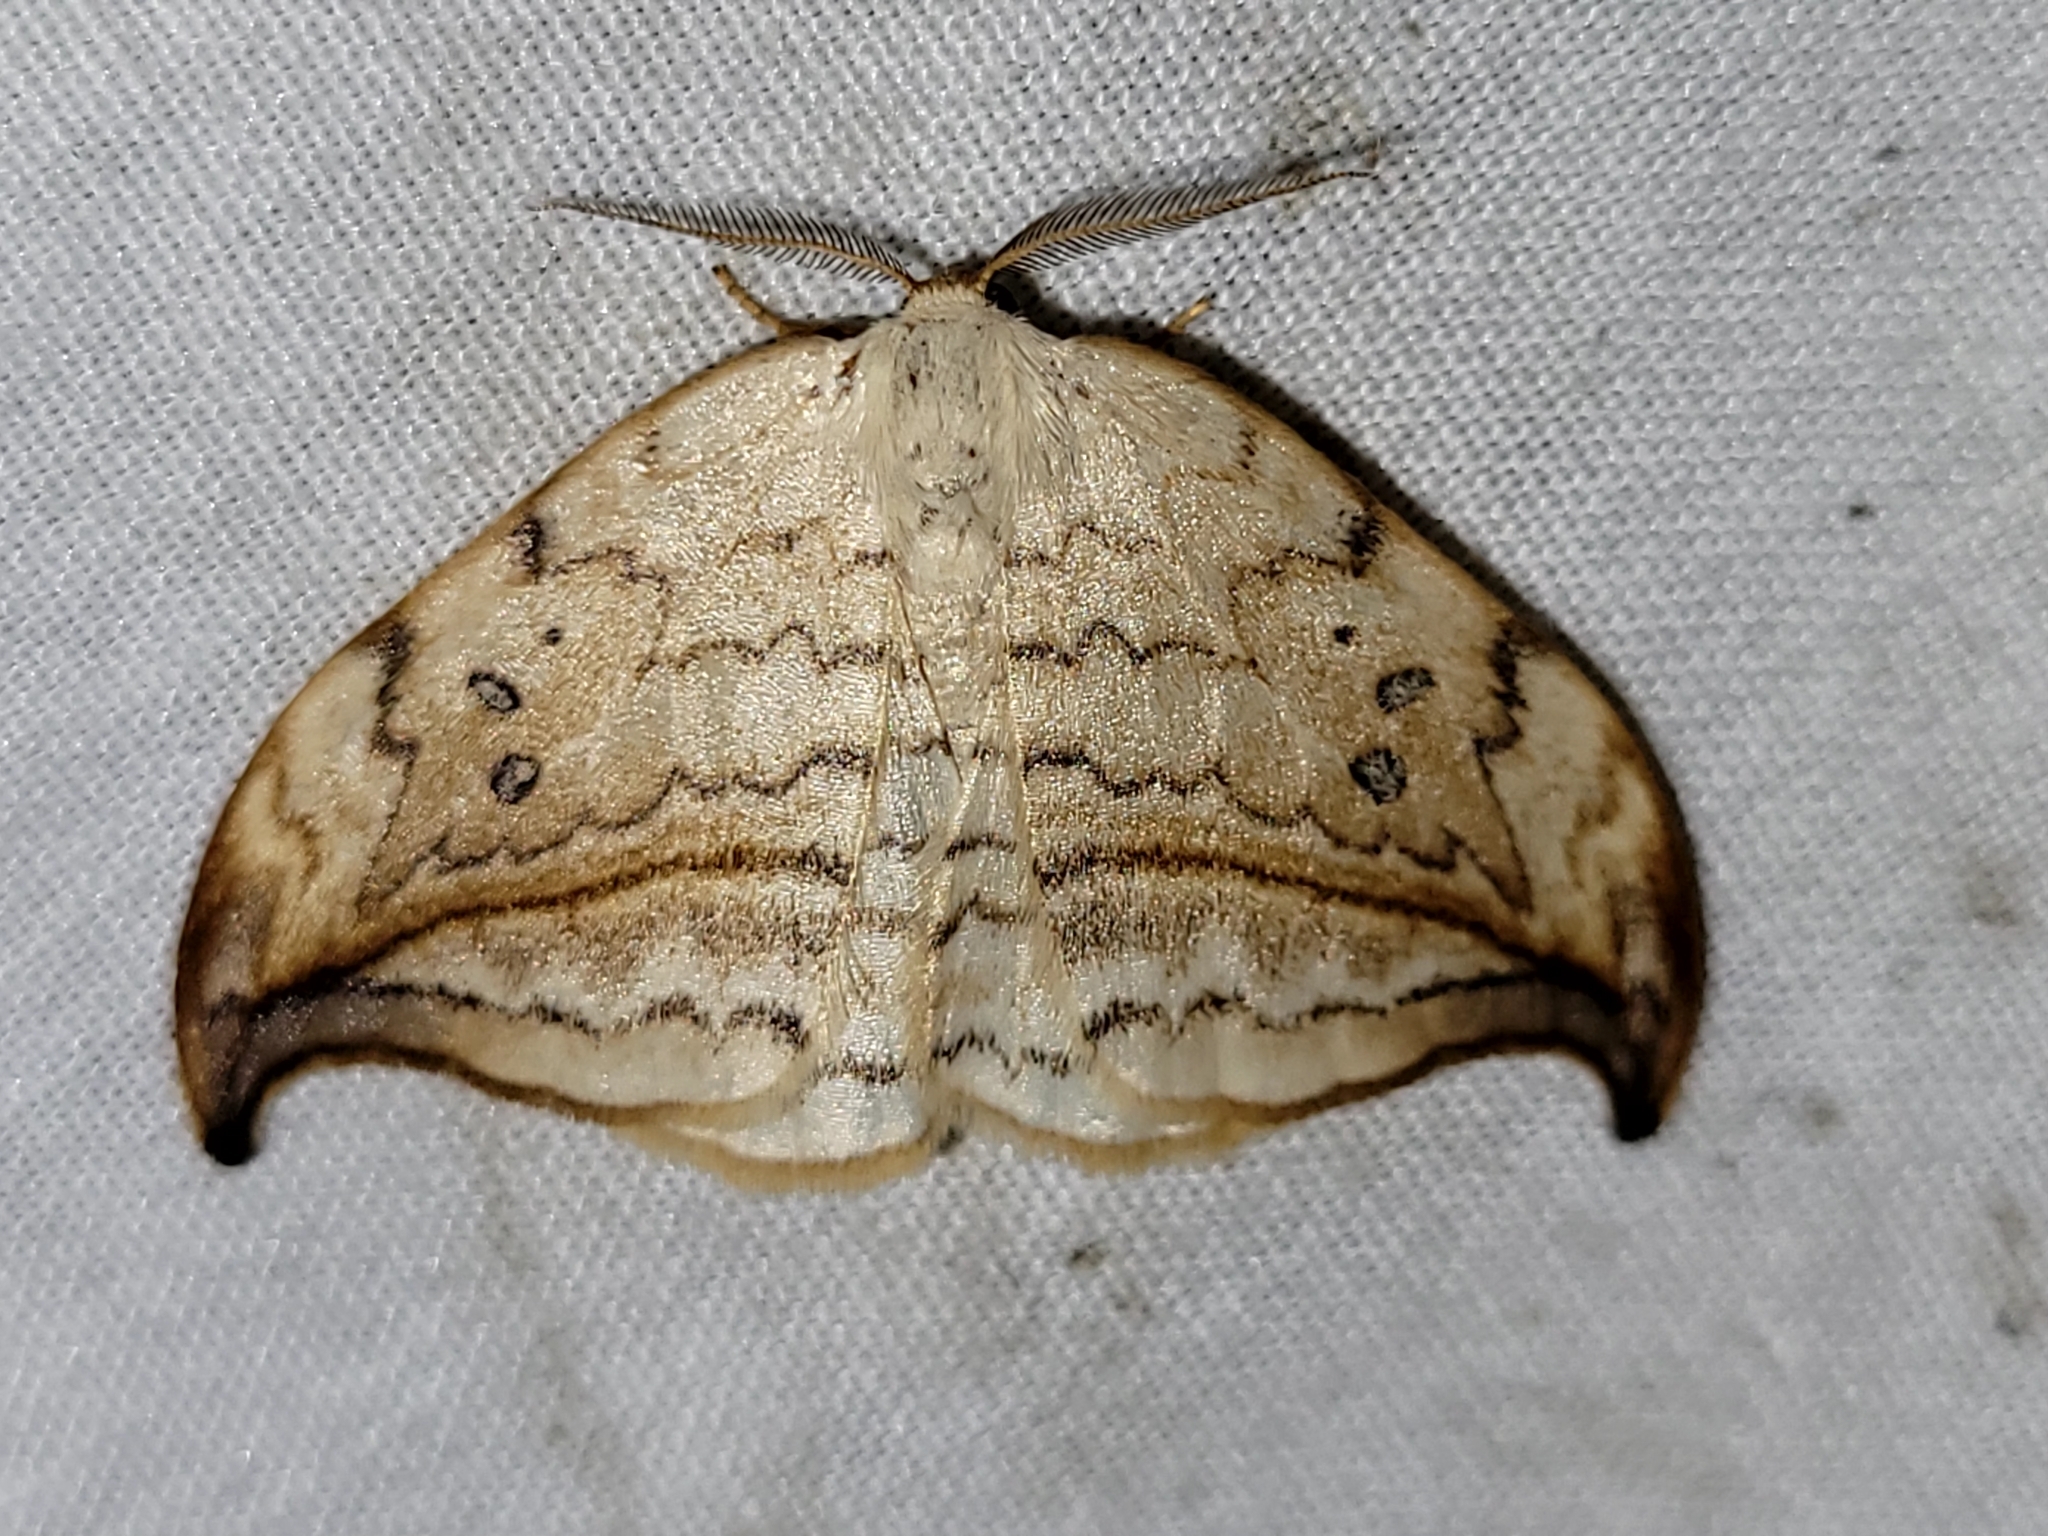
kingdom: Animalia
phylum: Arthropoda
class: Insecta
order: Lepidoptera
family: Drepanidae
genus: Drepana
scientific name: Drepana arcuata
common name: Arched hooktip moth
